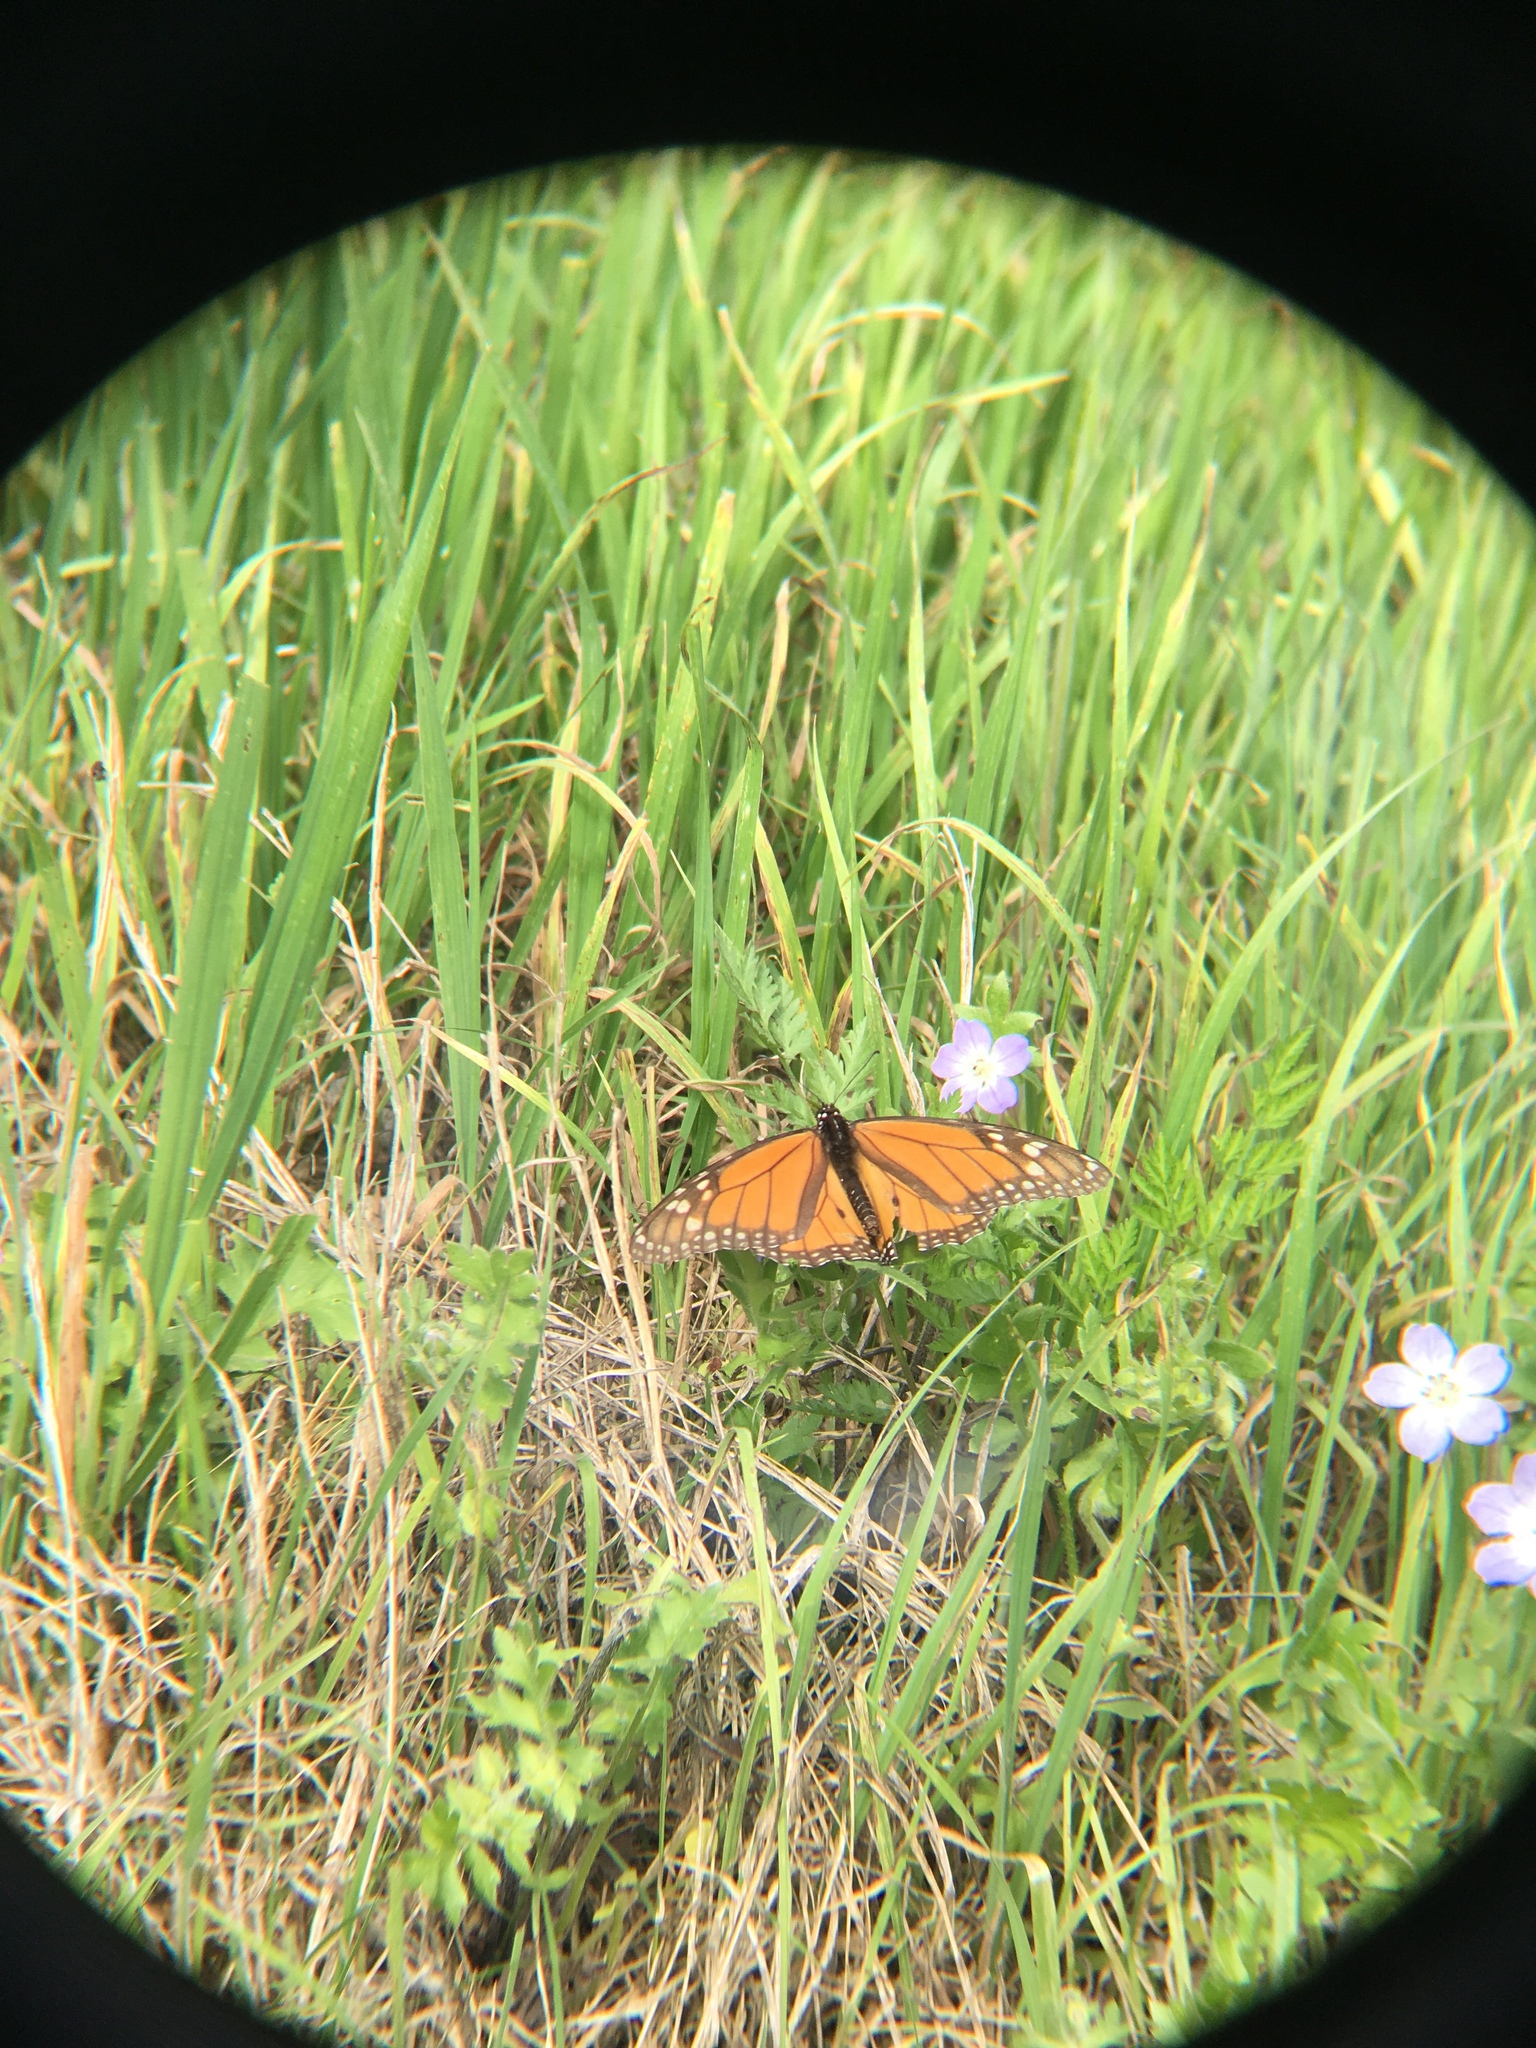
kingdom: Animalia
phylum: Arthropoda
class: Insecta
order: Lepidoptera
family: Nymphalidae
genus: Danaus
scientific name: Danaus plexippus
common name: Monarch
